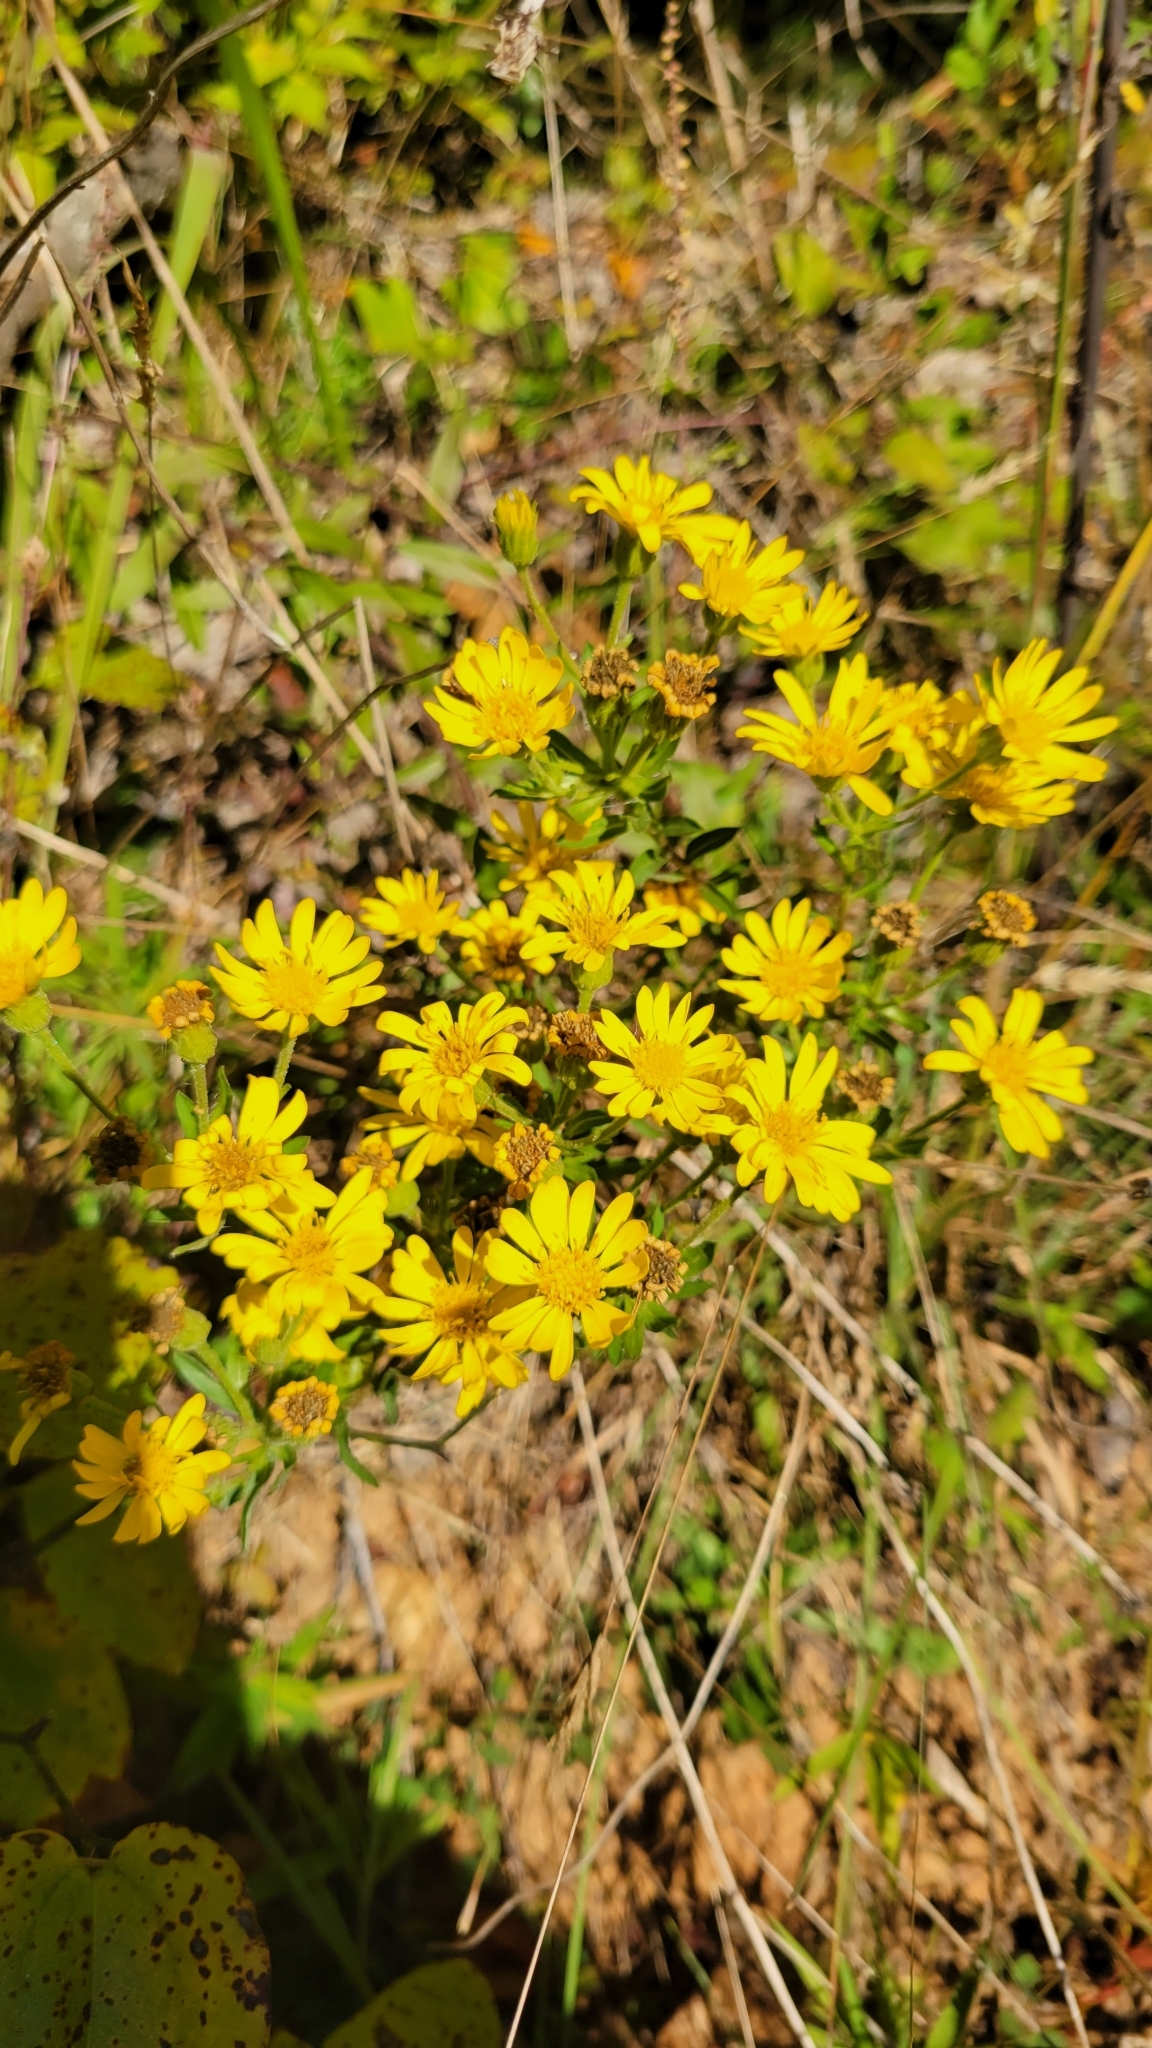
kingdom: Plantae
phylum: Tracheophyta
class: Magnoliopsida
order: Asterales
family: Asteraceae
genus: Chrysopsis
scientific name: Chrysopsis mariana
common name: Maryland golden-aster
